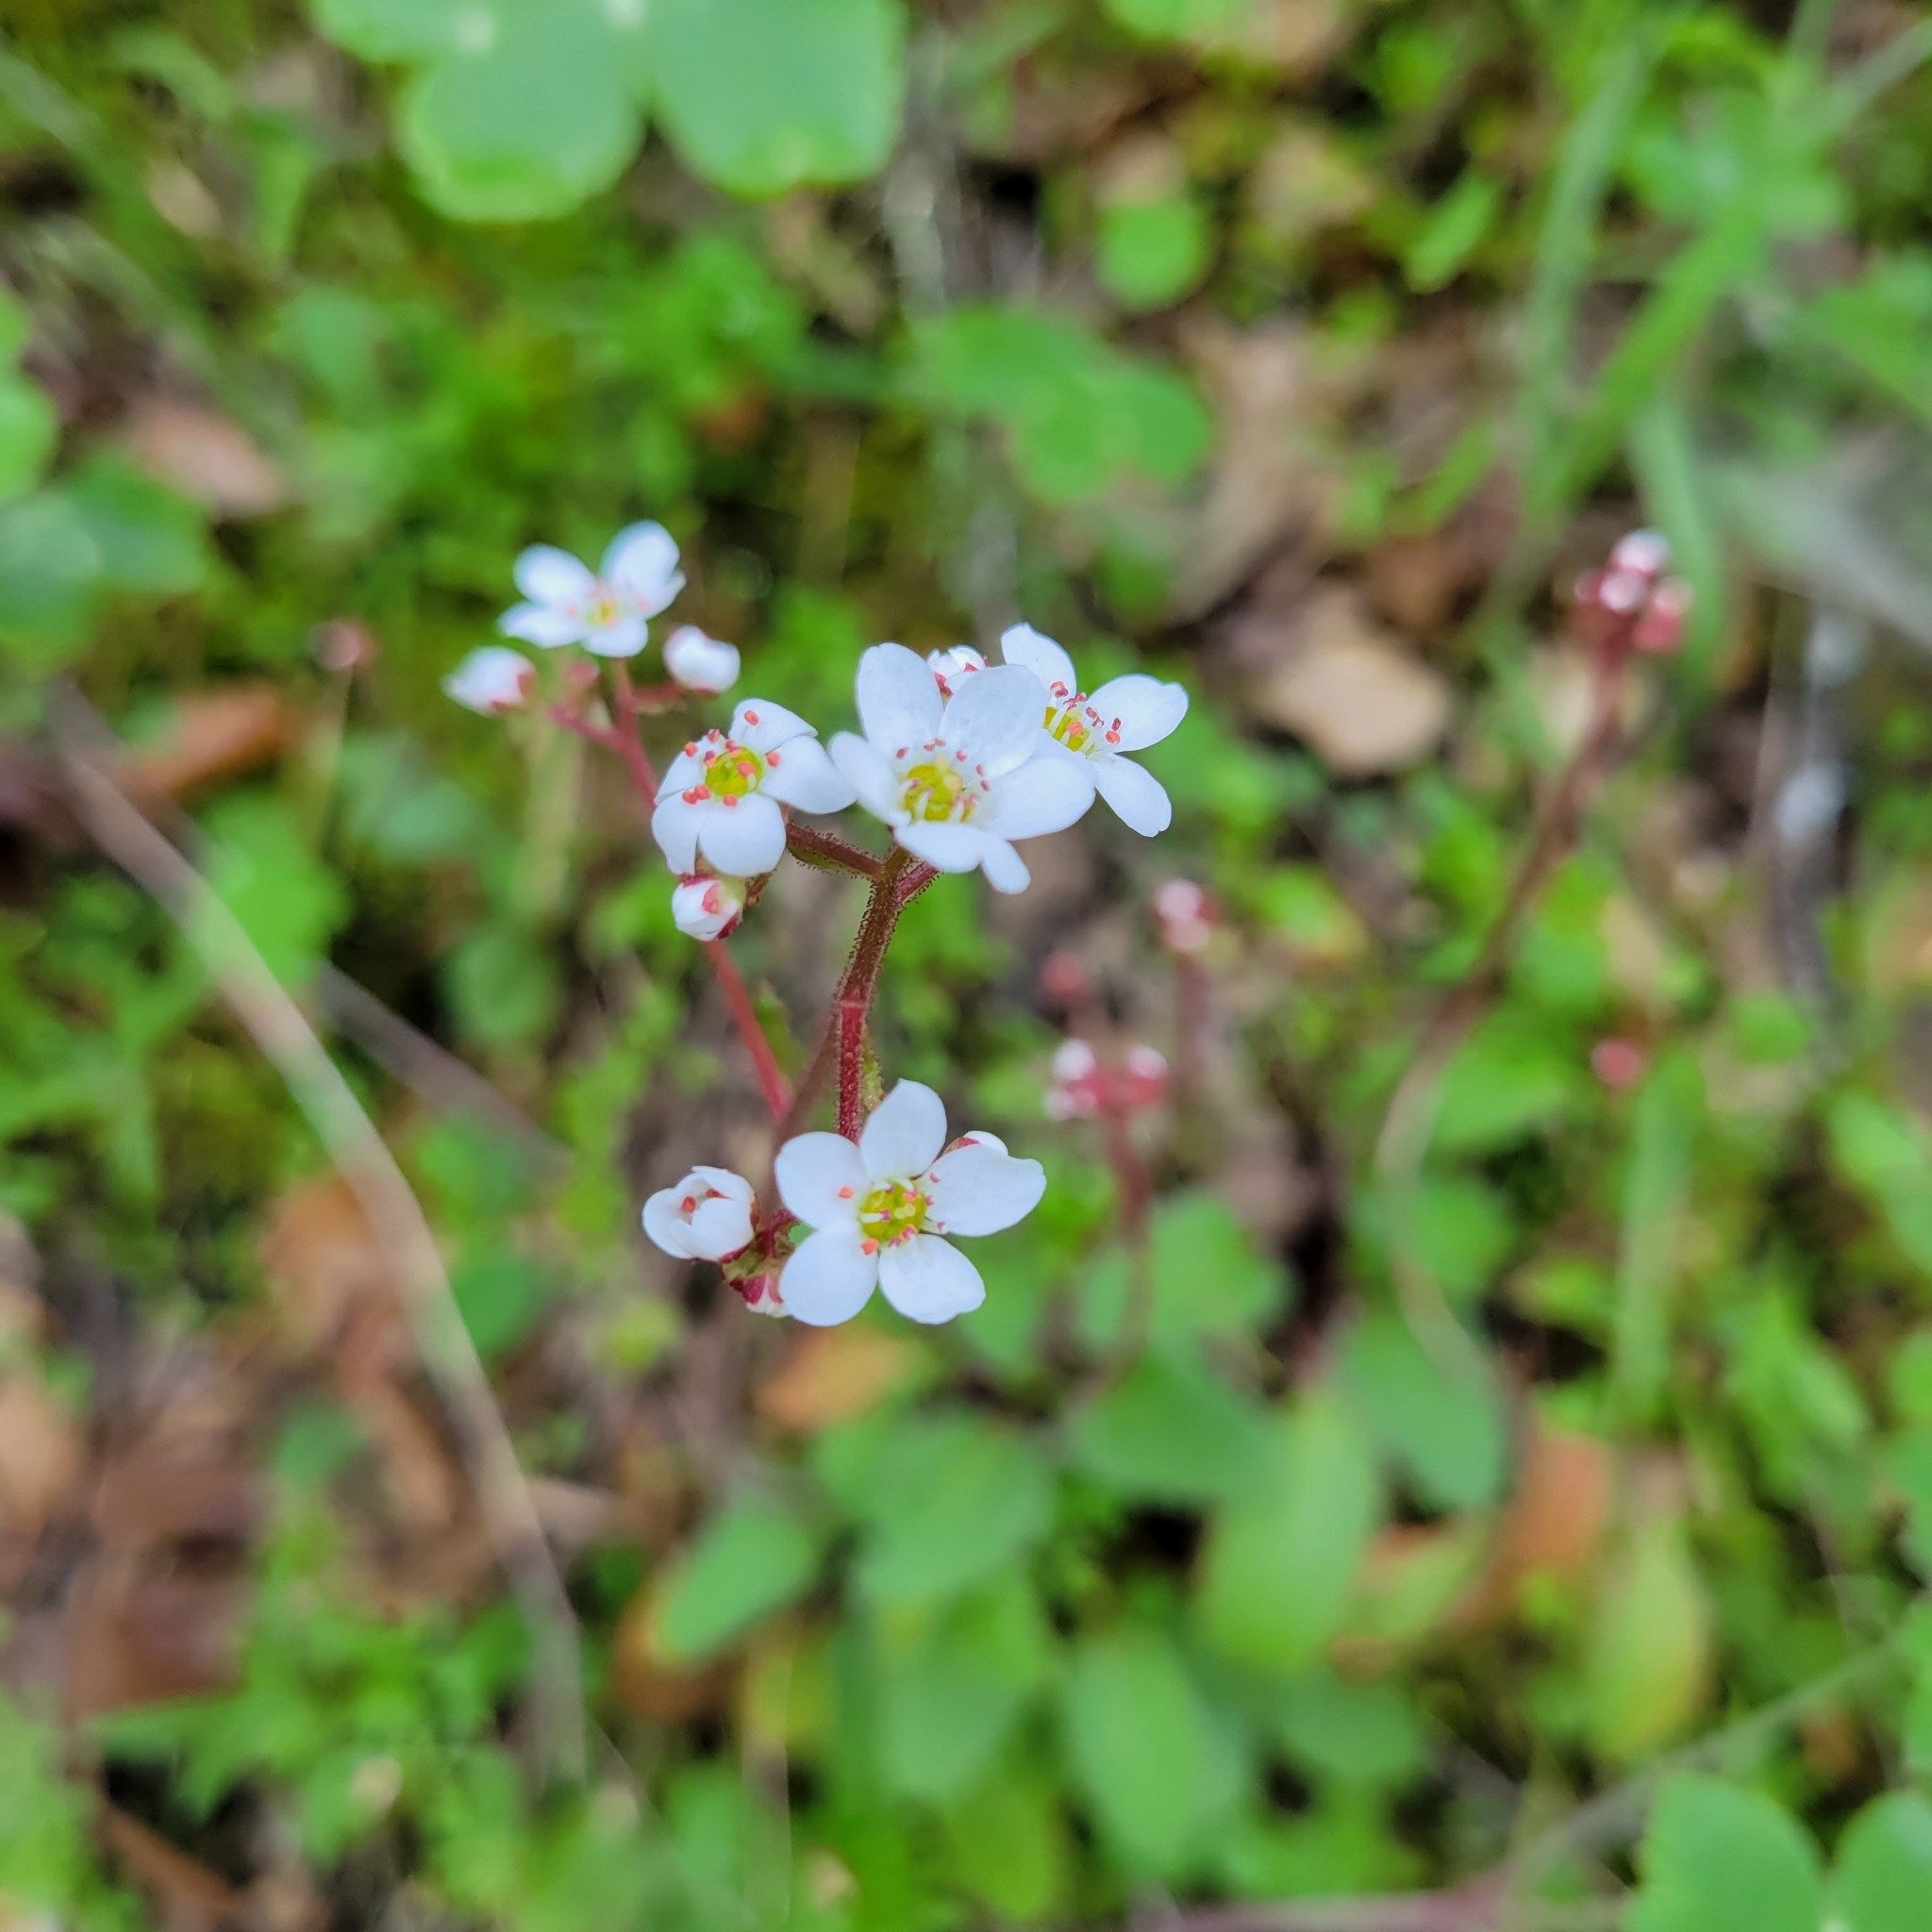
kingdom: Plantae
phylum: Tracheophyta
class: Magnoliopsida
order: Saxifragales
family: Saxifragaceae
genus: Micranthes
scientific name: Micranthes californica
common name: California saxifrage
